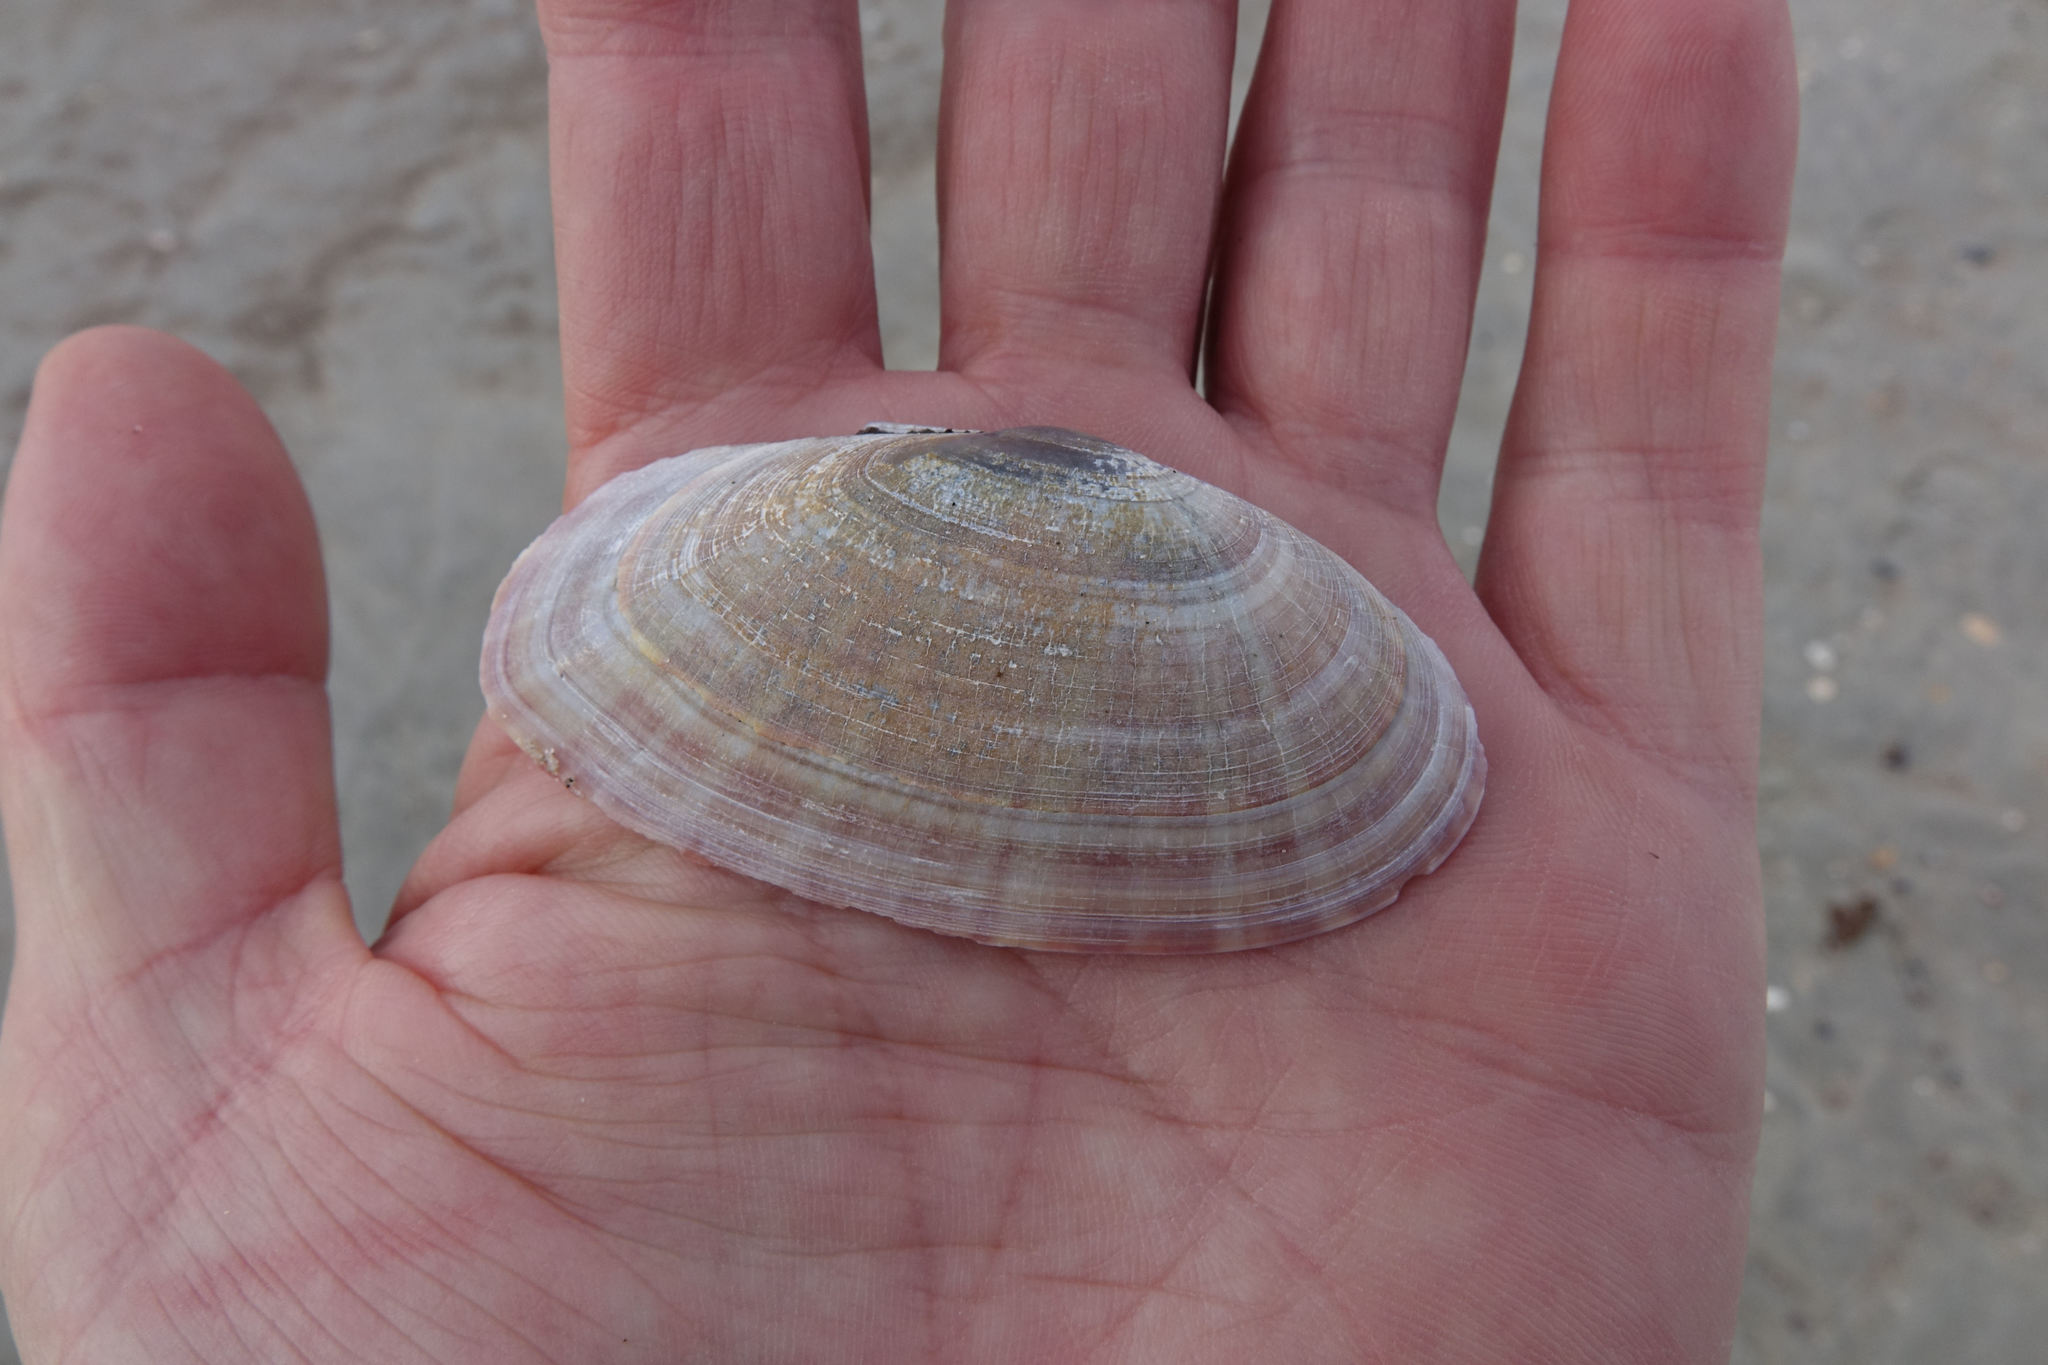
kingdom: Animalia
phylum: Mollusca
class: Bivalvia
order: Cardiida
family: Psammobiidae
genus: Gari
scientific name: Gari convexa
